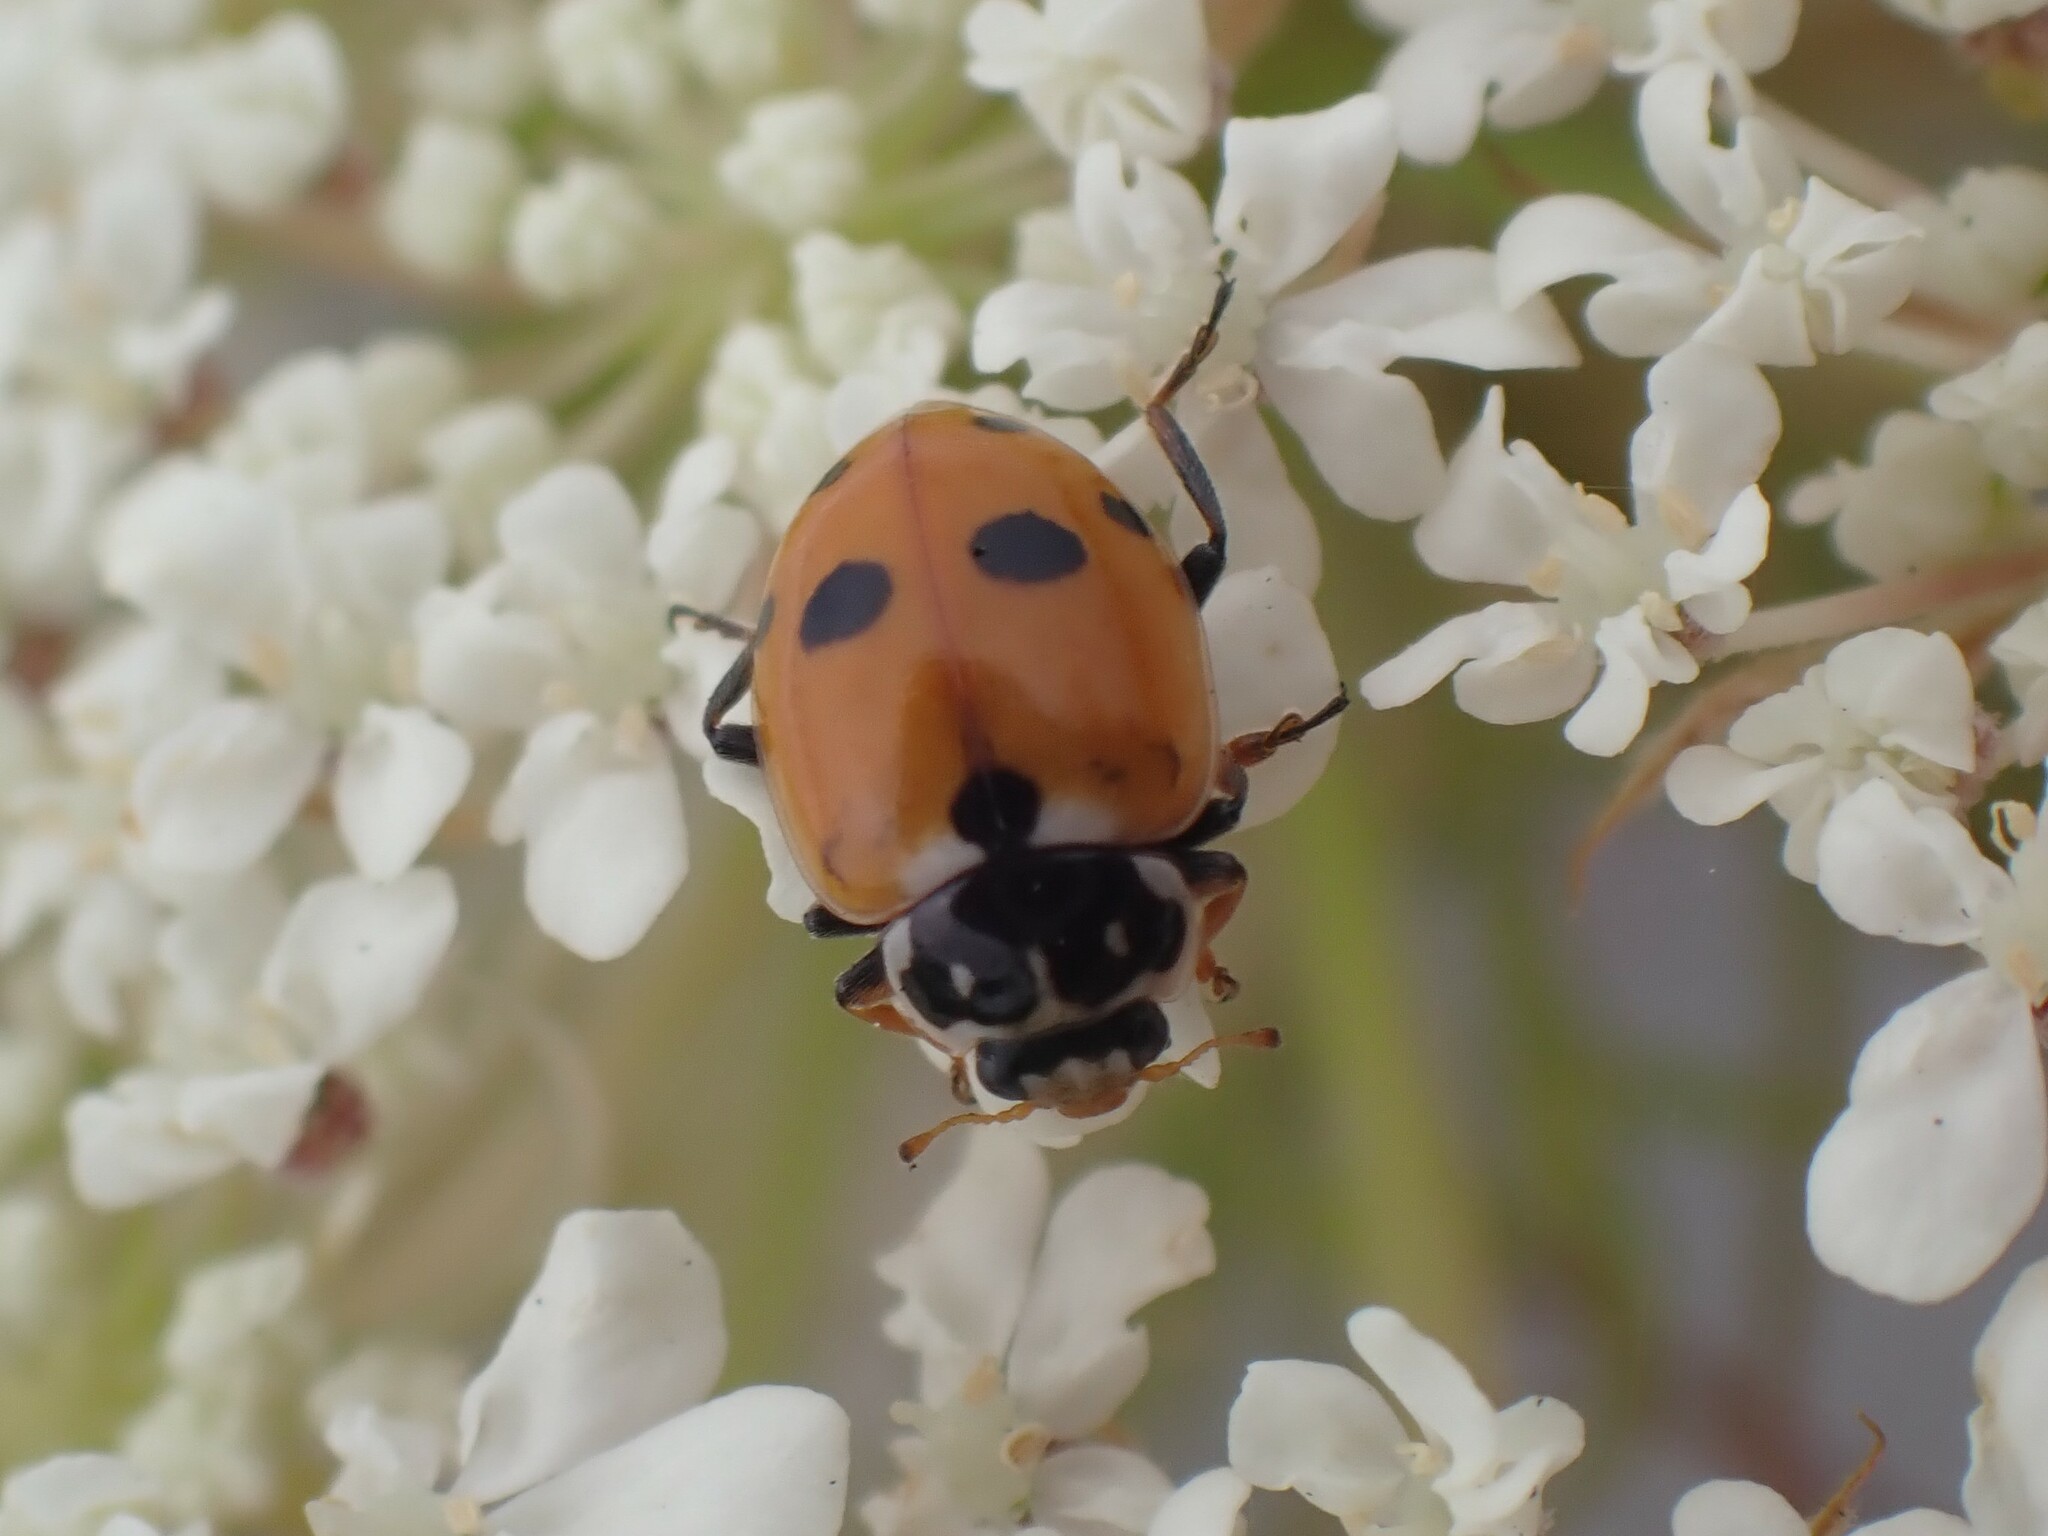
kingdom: Animalia
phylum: Arthropoda
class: Insecta
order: Coleoptera
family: Coccinellidae
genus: Hippodamia
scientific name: Hippodamia variegata
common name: Ladybird beetle
